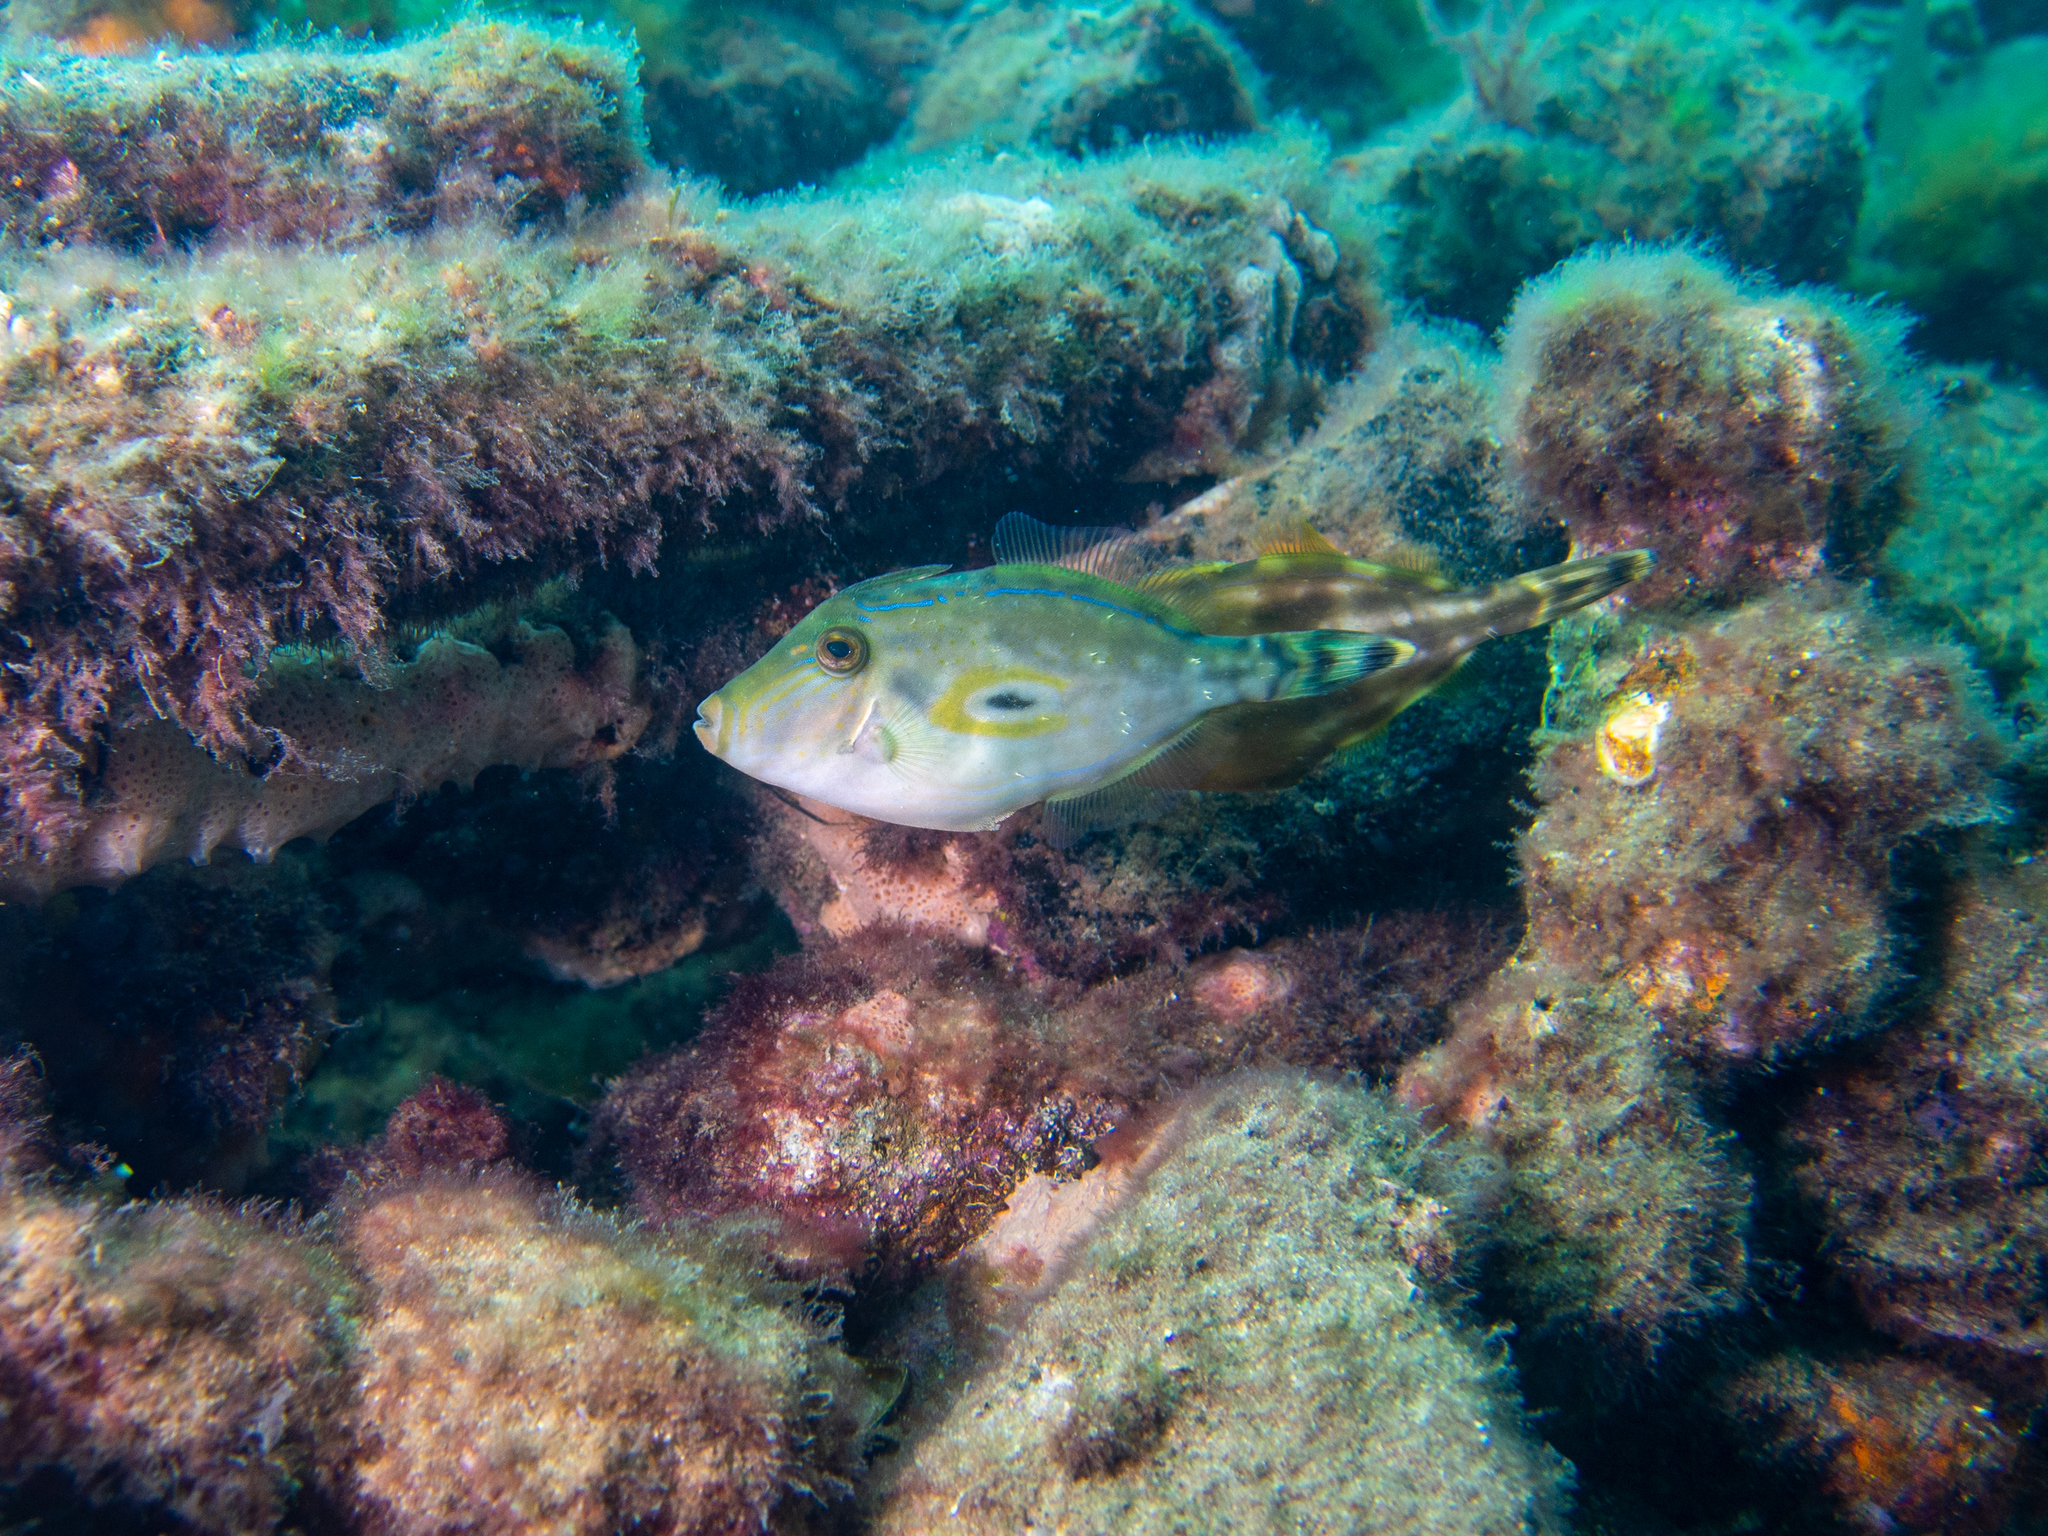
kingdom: Animalia
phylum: Chordata
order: Tetraodontiformes
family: Monacanthidae
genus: Meuschenia
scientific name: Meuschenia hippocrepis
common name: Horse-shoe leatherjacket
